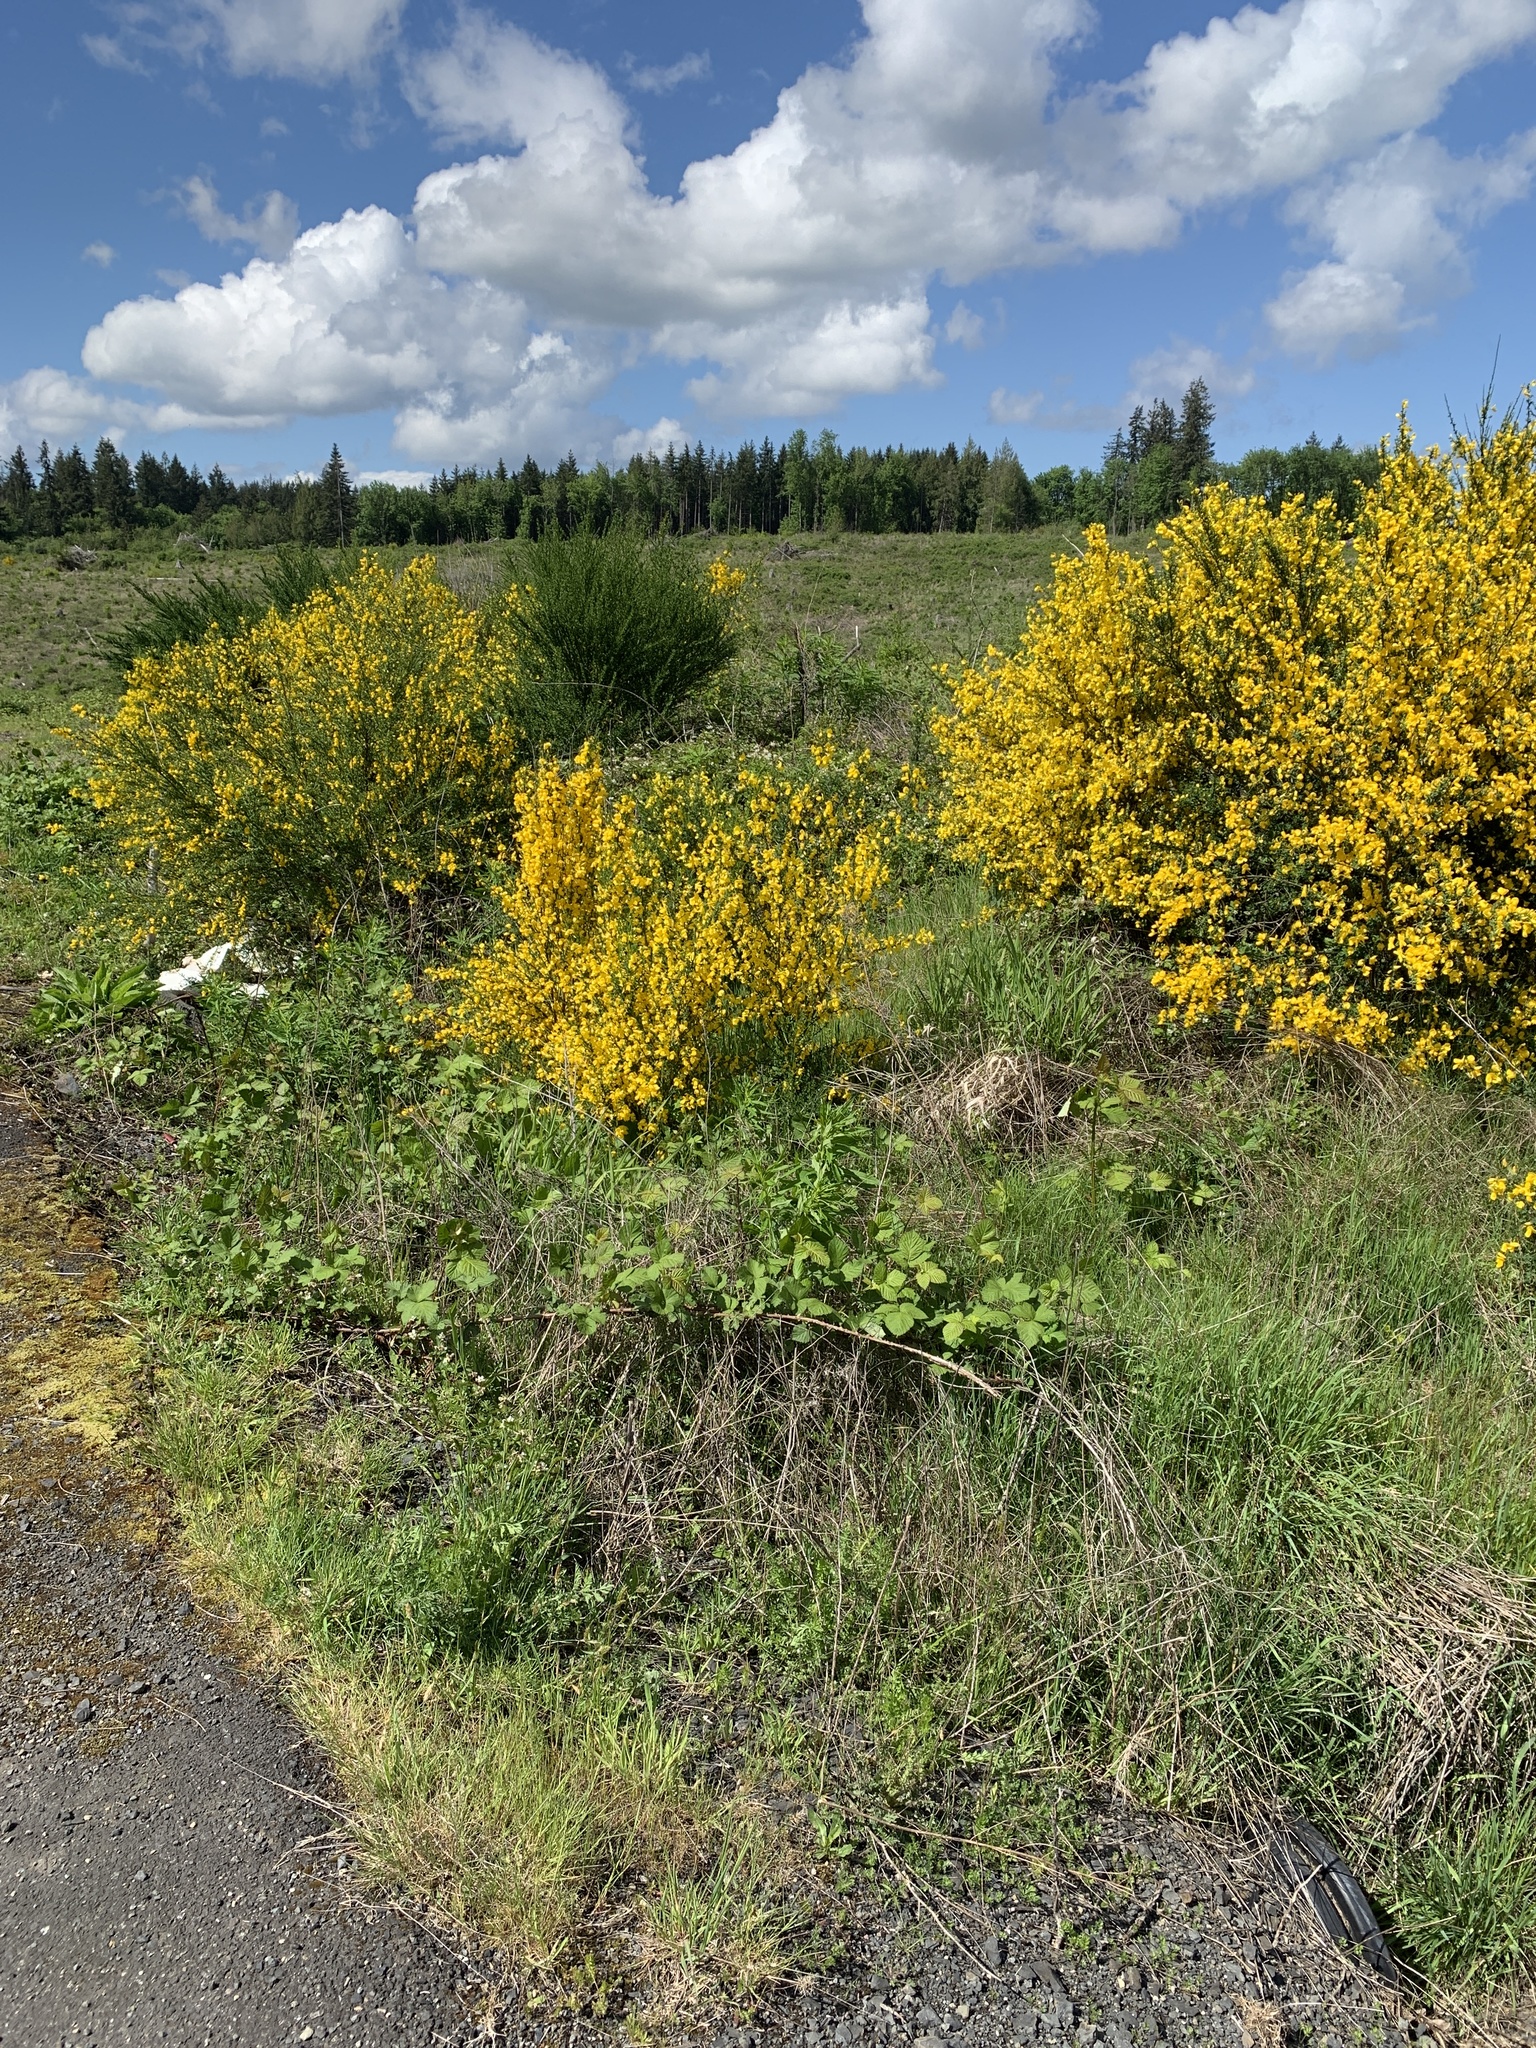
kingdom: Plantae
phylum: Tracheophyta
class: Magnoliopsida
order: Fabales
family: Fabaceae
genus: Cytisus
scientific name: Cytisus scoparius
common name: Scotch broom
